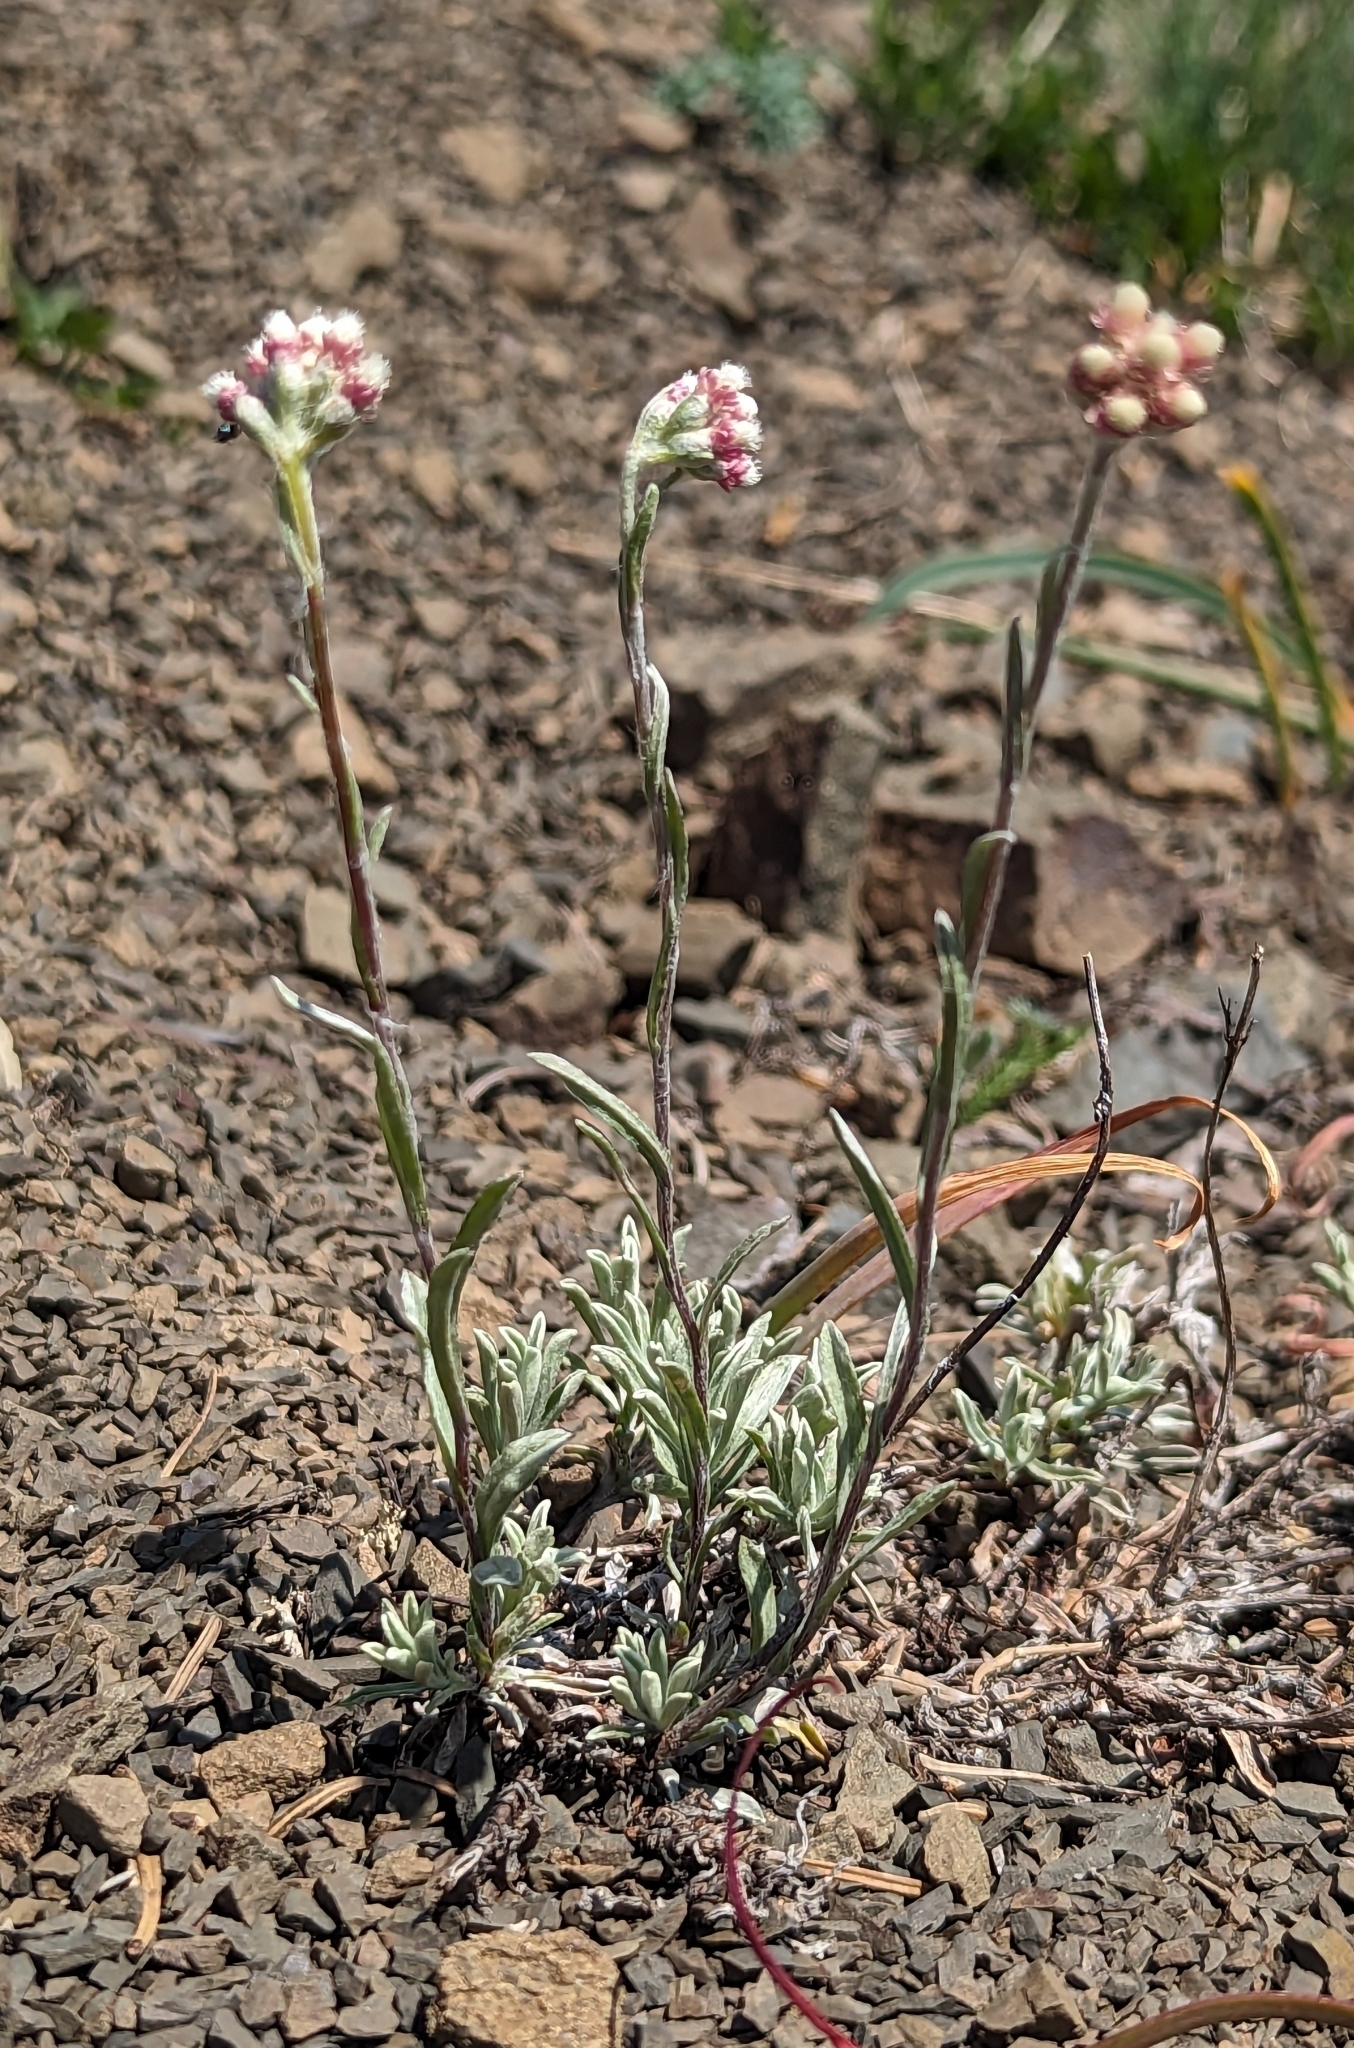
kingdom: Plantae
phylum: Tracheophyta
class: Magnoliopsida
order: Asterales
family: Asteraceae
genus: Antennaria
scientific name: Antennaria rosea
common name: Rosy pussytoes
